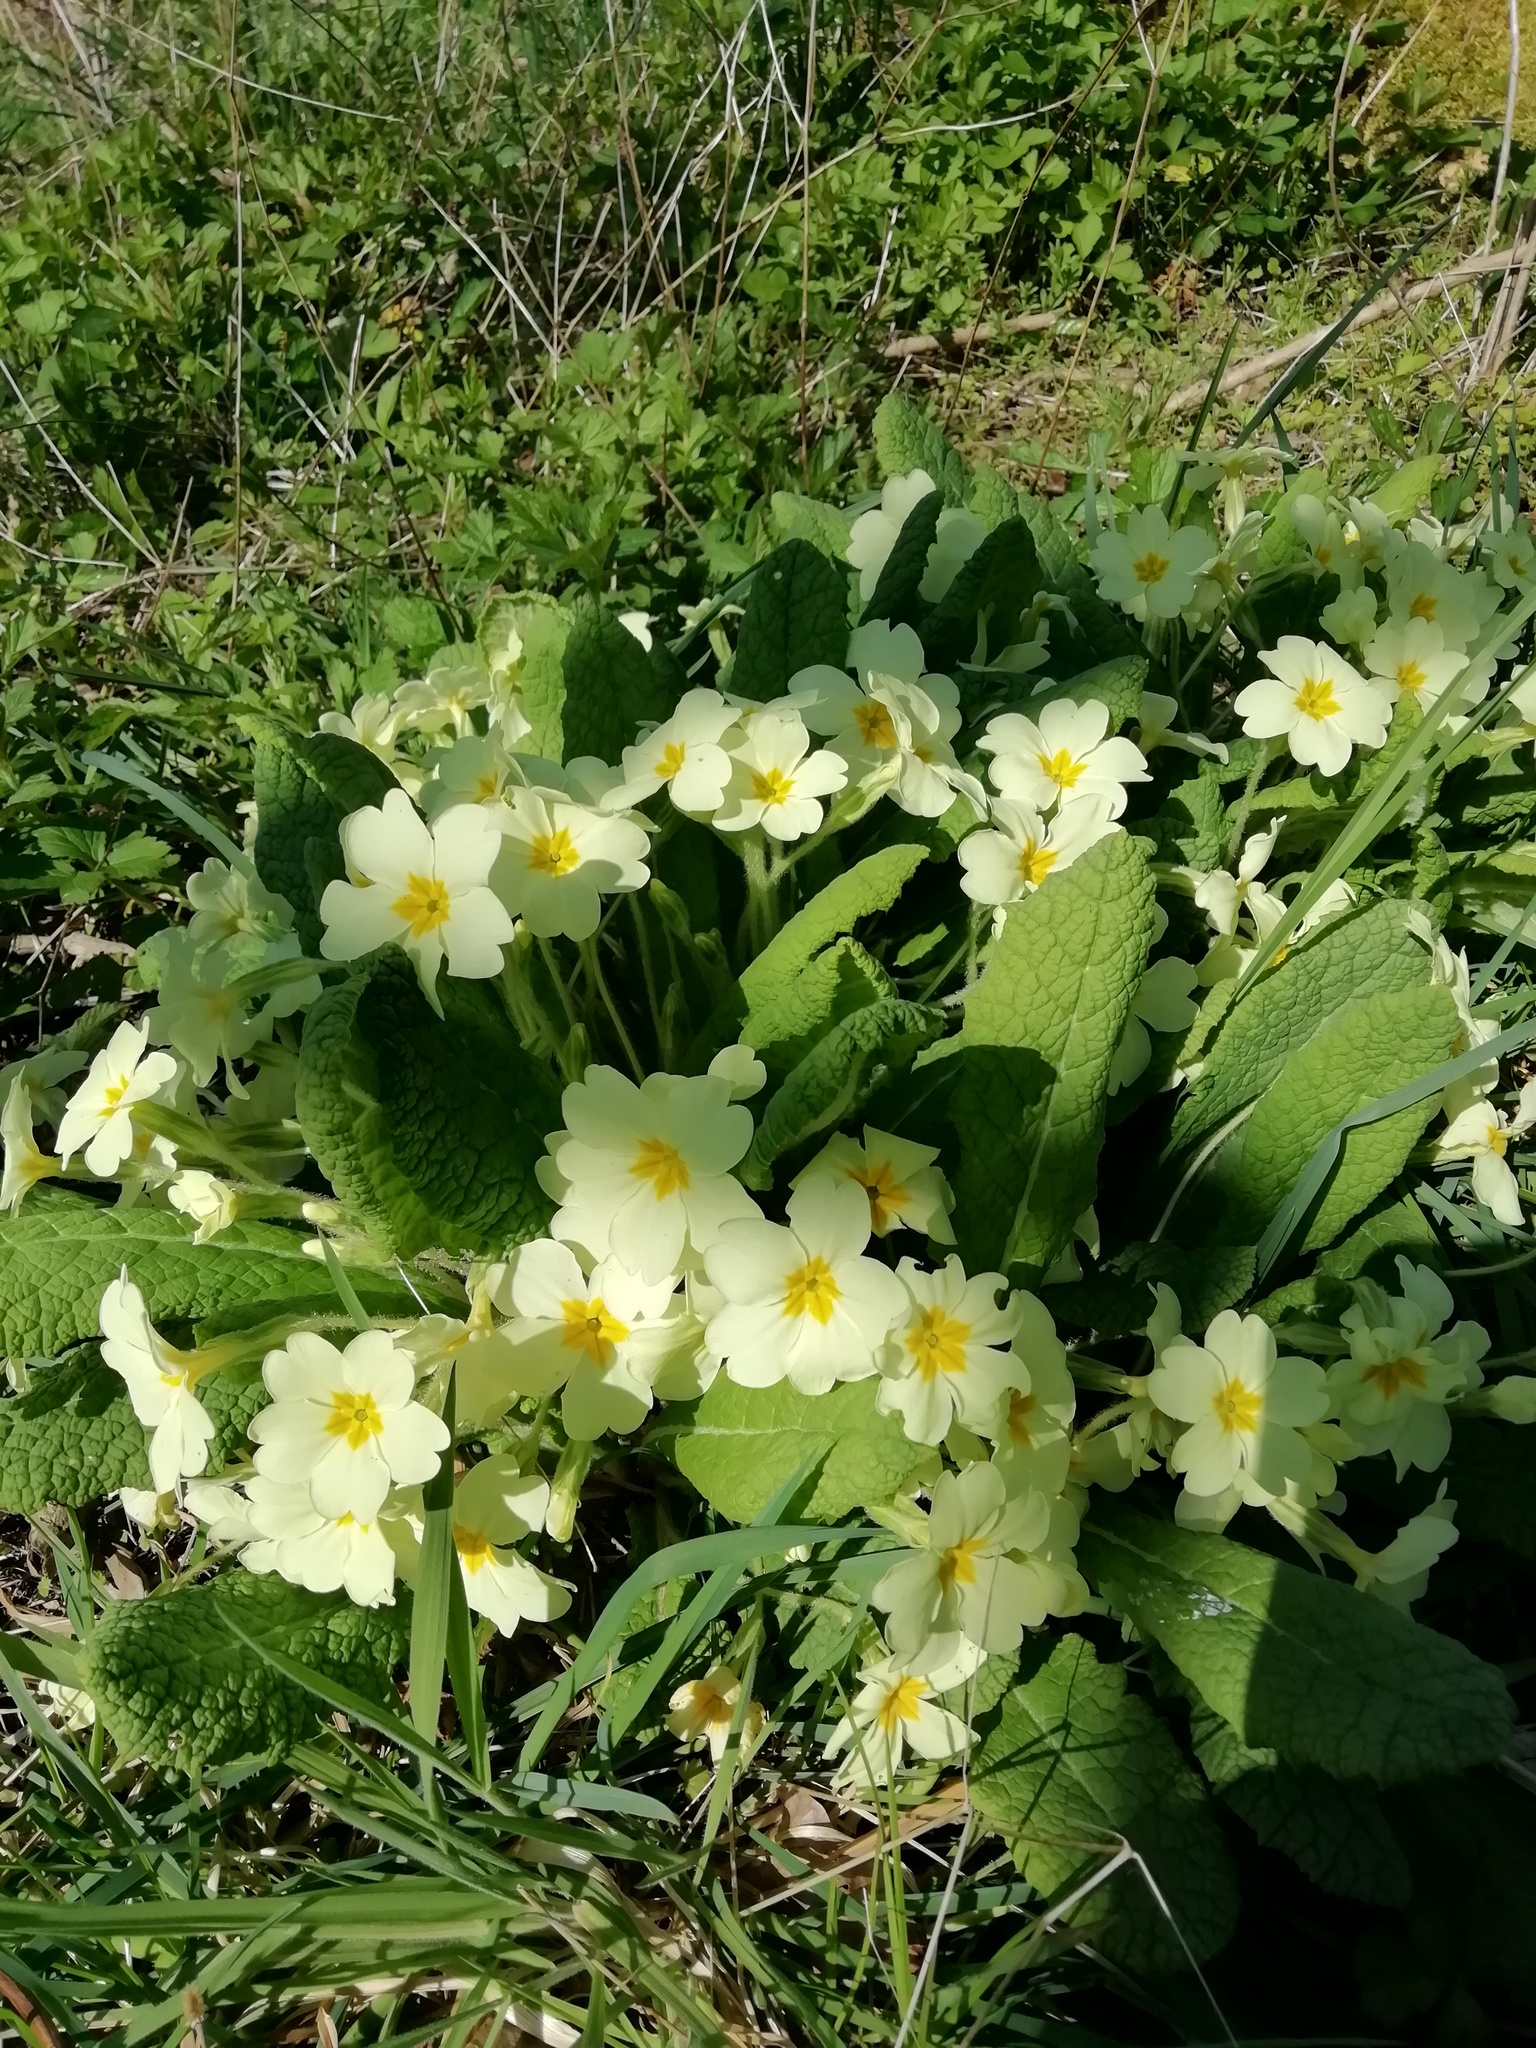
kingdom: Plantae
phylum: Tracheophyta
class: Magnoliopsida
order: Ericales
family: Primulaceae
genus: Primula
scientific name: Primula vulgaris
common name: Primrose
